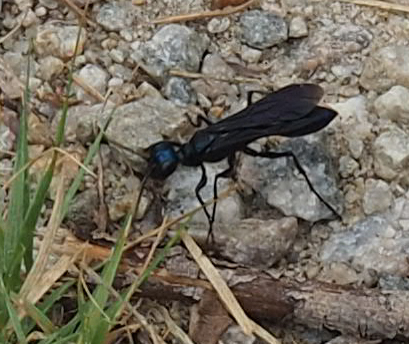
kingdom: Animalia
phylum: Arthropoda
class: Insecta
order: Hymenoptera
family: Sphecidae
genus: Chlorion
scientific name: Chlorion aerarium
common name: Steel-blue cricket hunter
